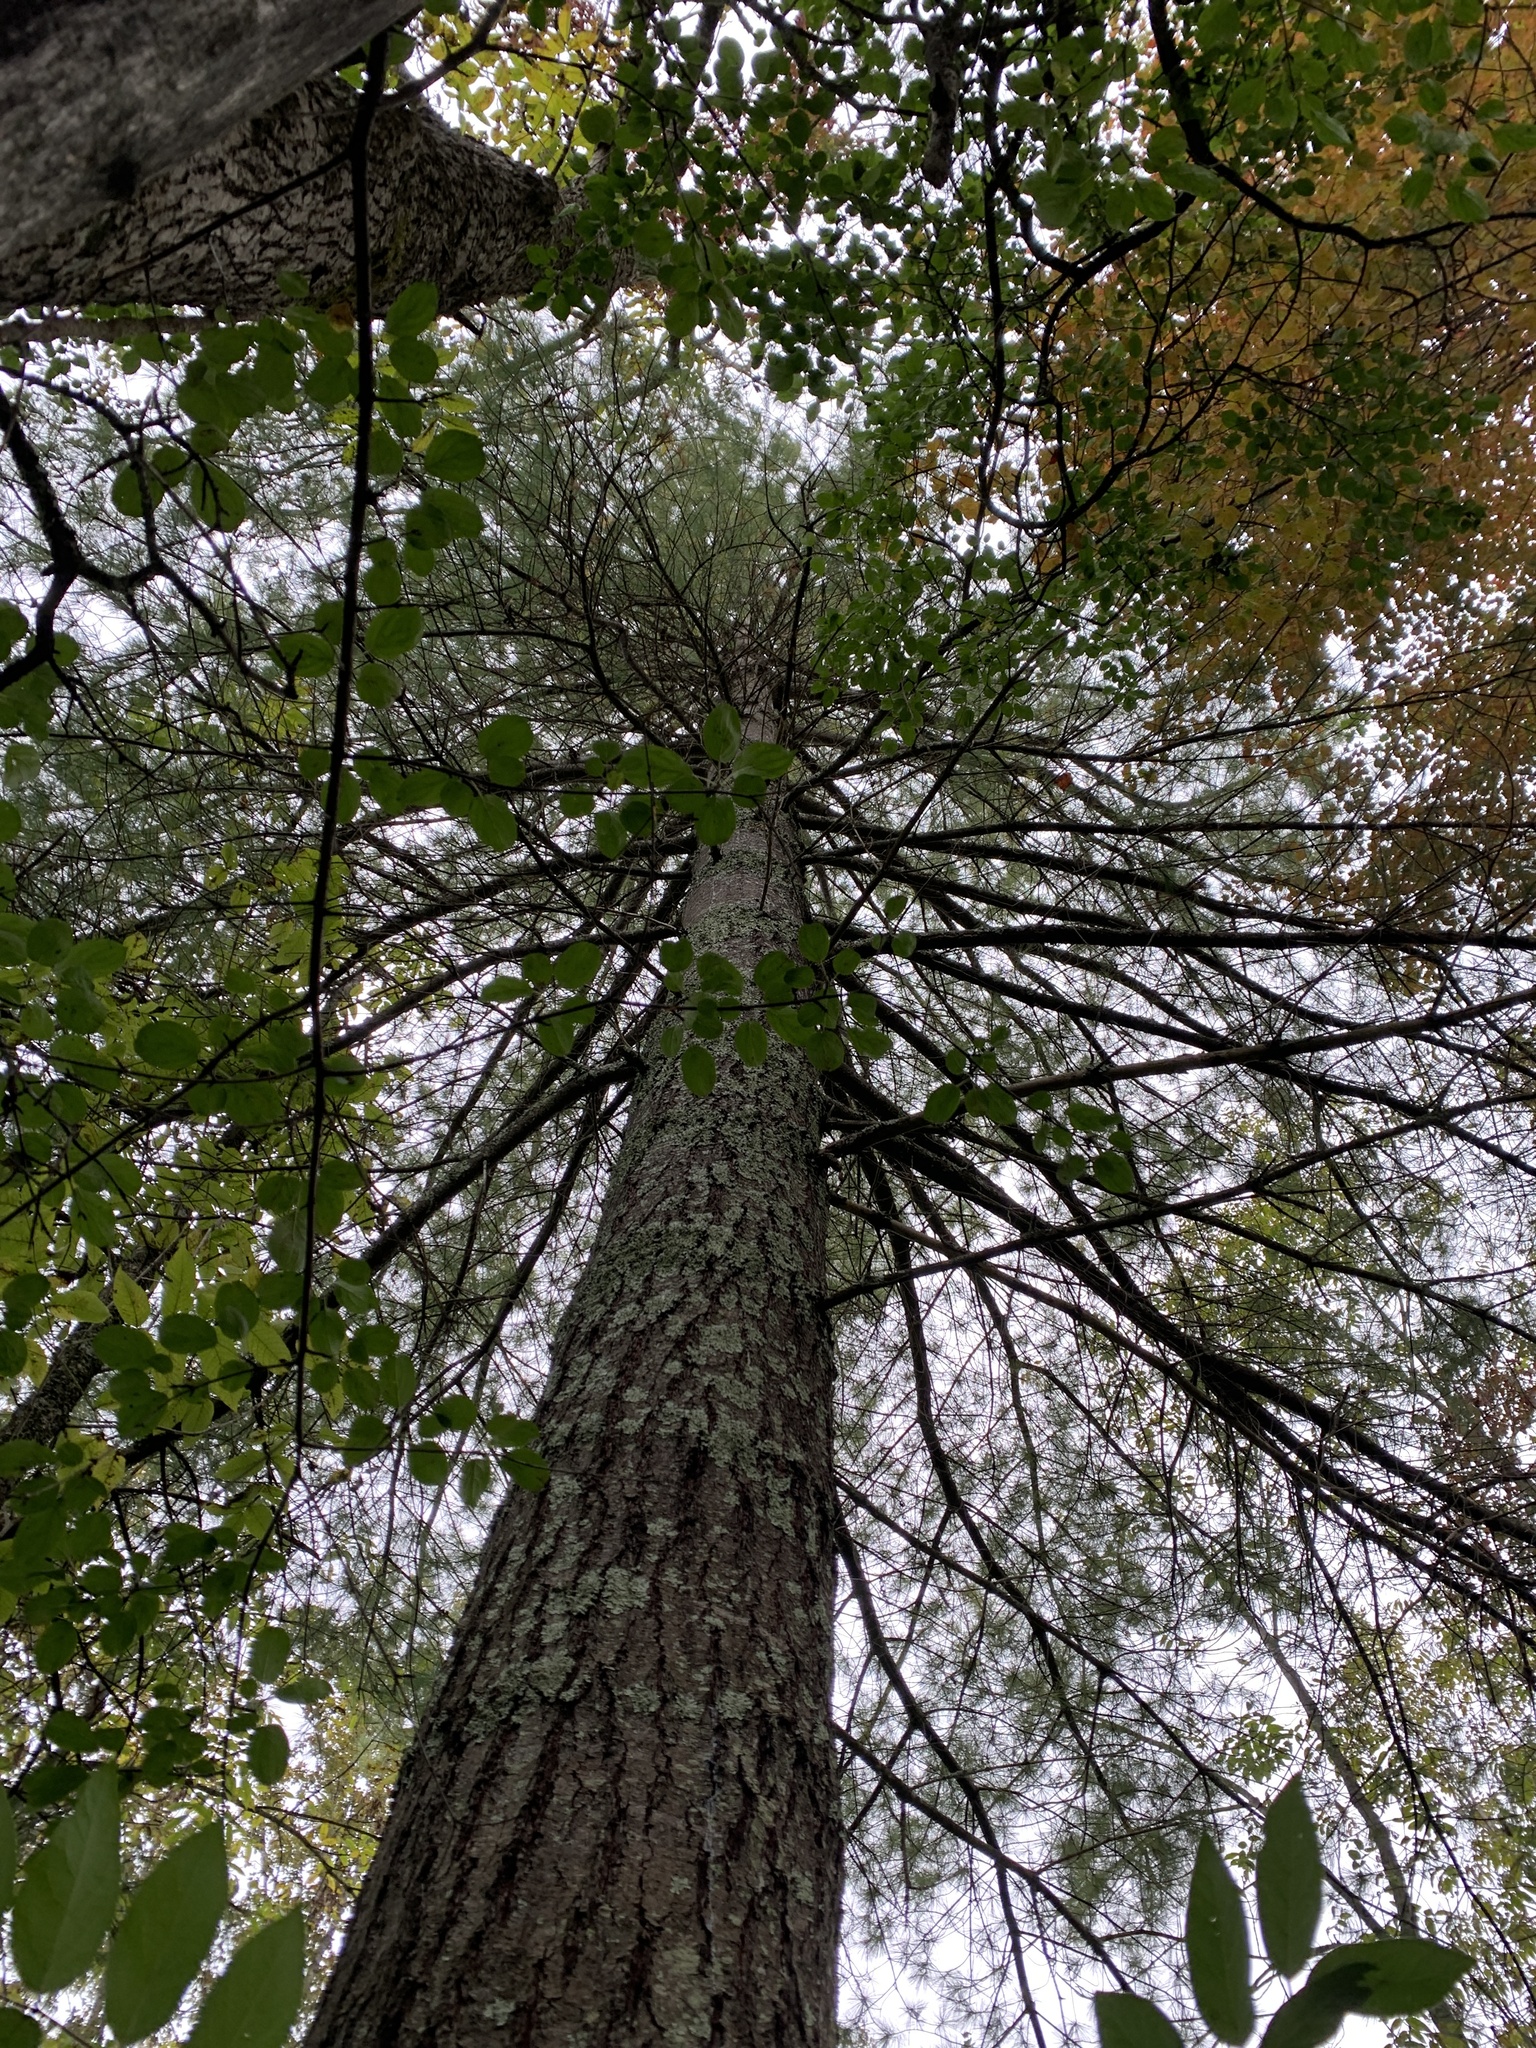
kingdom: Plantae
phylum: Tracheophyta
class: Pinopsida
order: Pinales
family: Pinaceae
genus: Pinus
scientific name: Pinus strobus
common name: Weymouth pine
